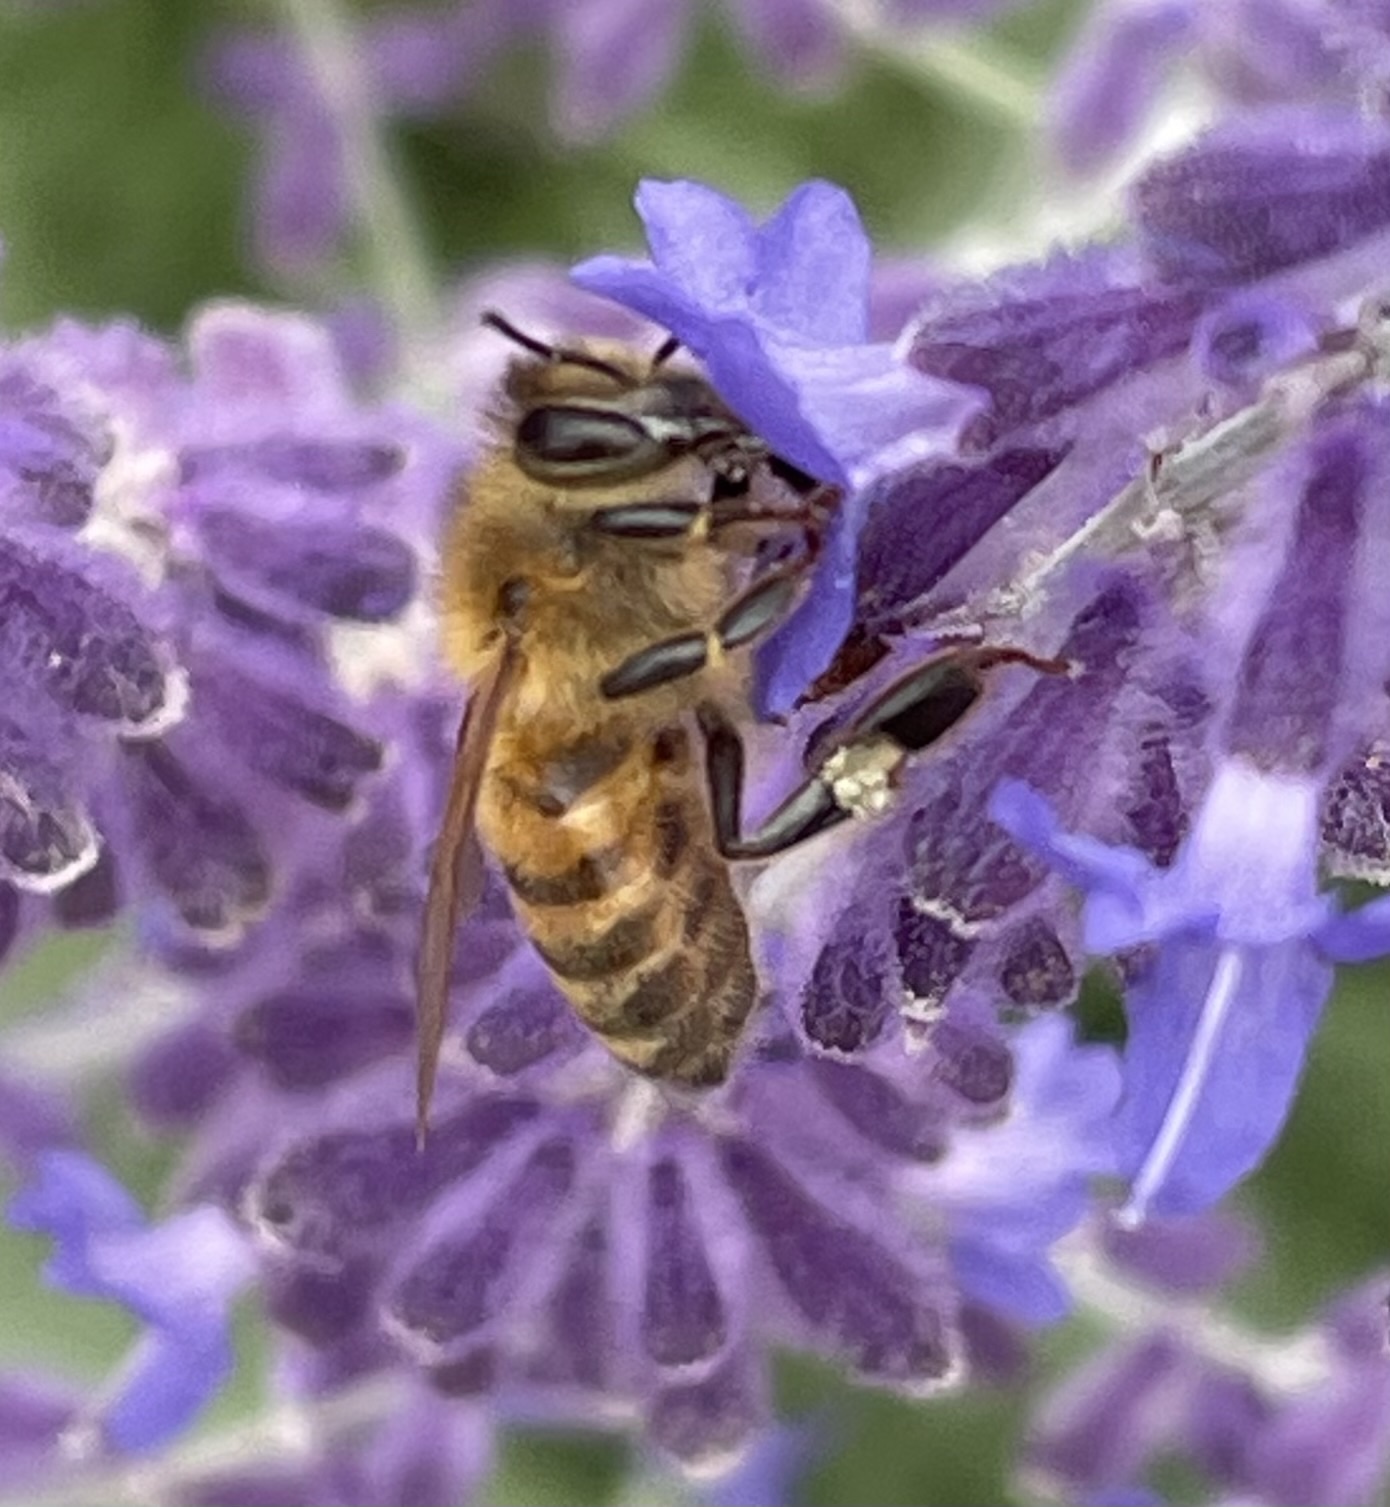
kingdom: Animalia
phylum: Arthropoda
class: Insecta
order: Hymenoptera
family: Apidae
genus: Apis
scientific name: Apis mellifera
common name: Honey bee
